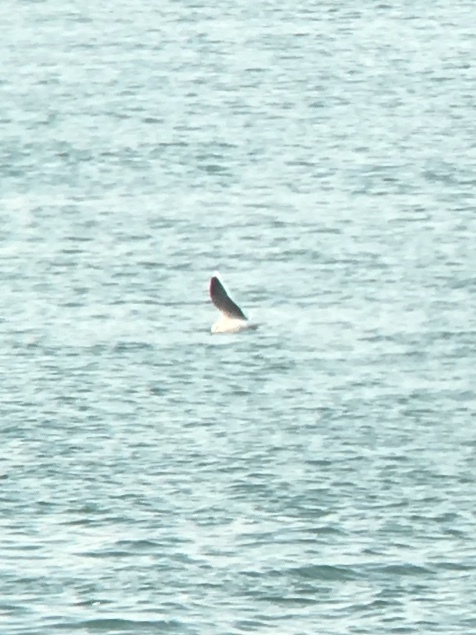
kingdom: Animalia
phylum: Chordata
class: Aves
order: Charadriiformes
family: Laridae
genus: Hydrocoloeus
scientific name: Hydrocoloeus minutus
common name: Little gull
